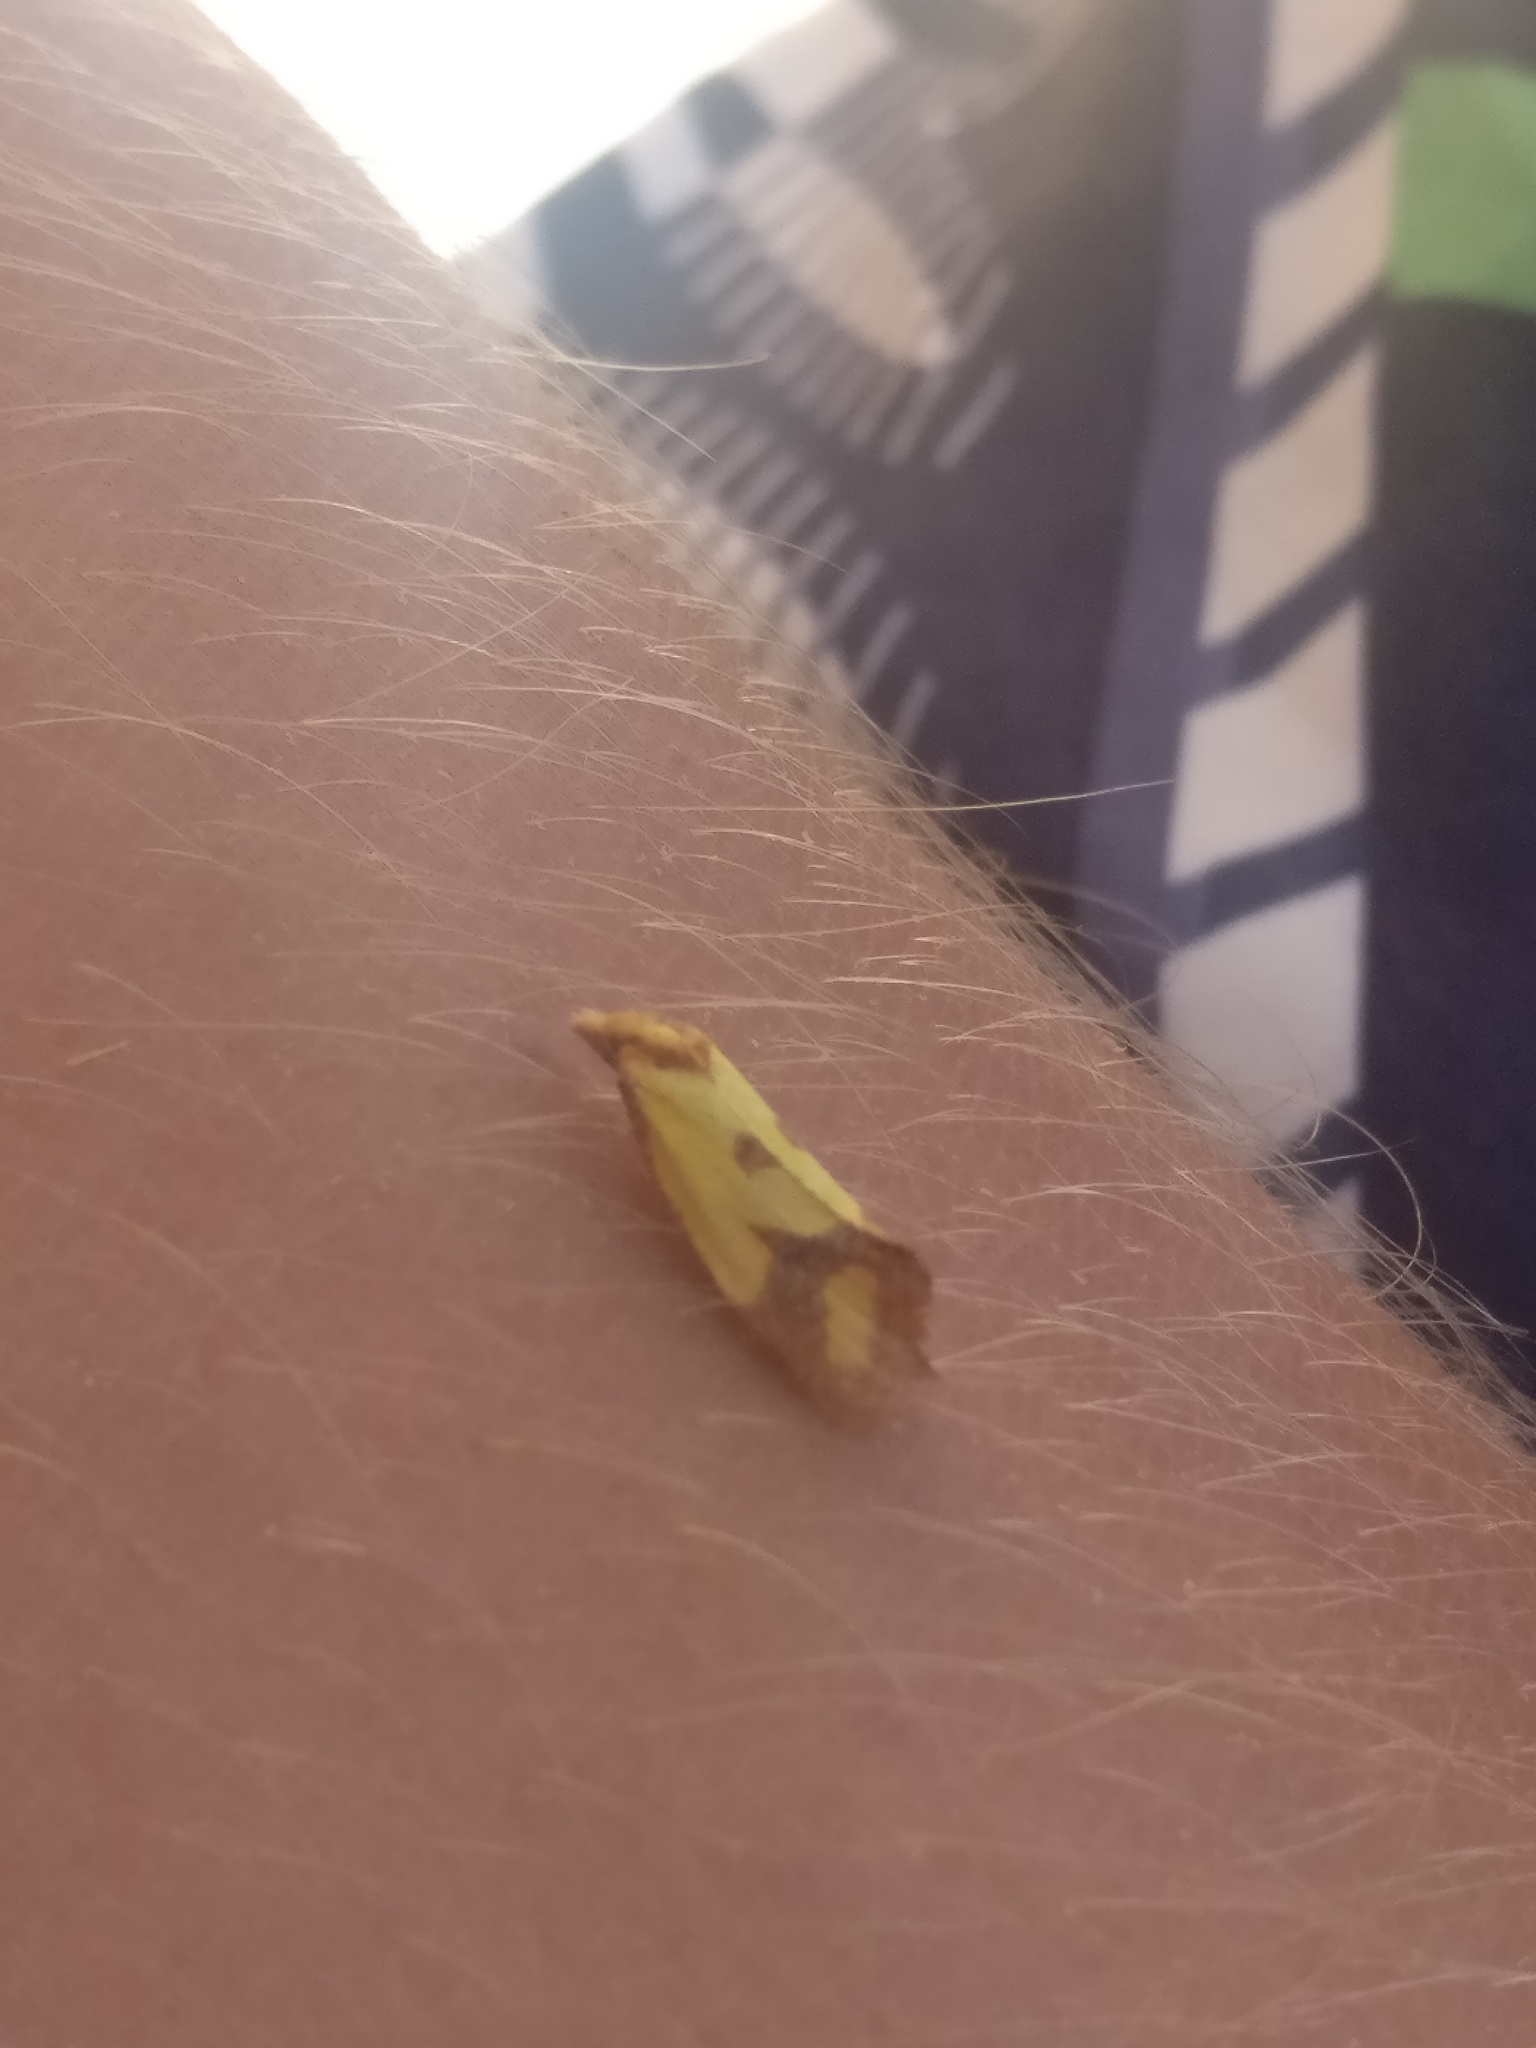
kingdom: Animalia
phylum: Arthropoda
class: Insecta
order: Lepidoptera
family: Tortricidae
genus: Agapeta
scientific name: Agapeta zoegana
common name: Sulfur knapweed root moth
